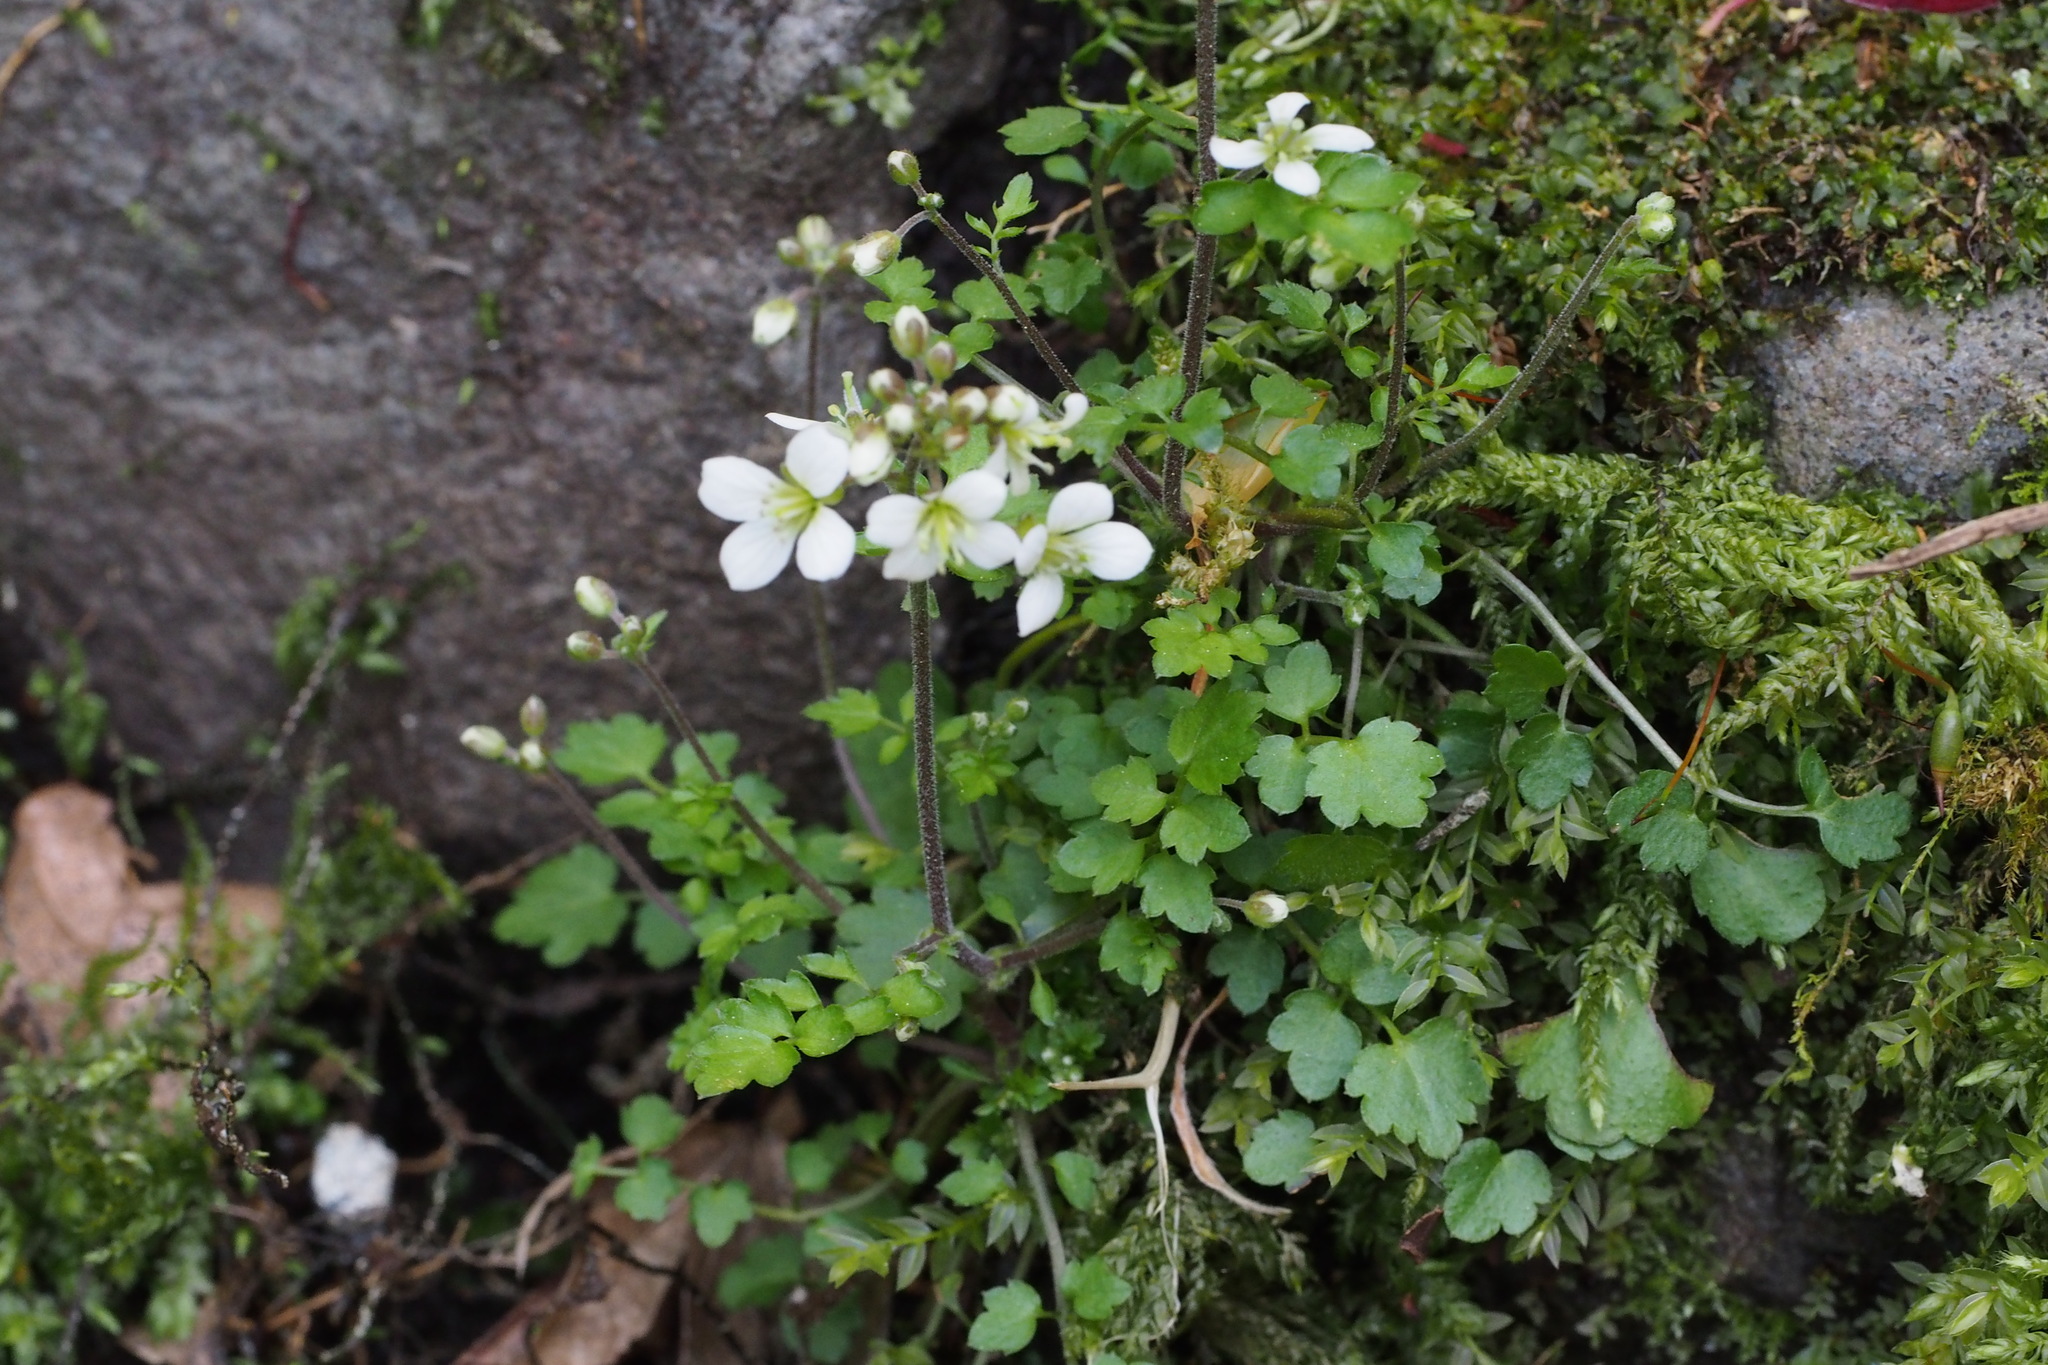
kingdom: Plantae
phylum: Tracheophyta
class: Magnoliopsida
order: Brassicales
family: Brassicaceae
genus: Cardamine
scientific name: Cardamine tanakae
